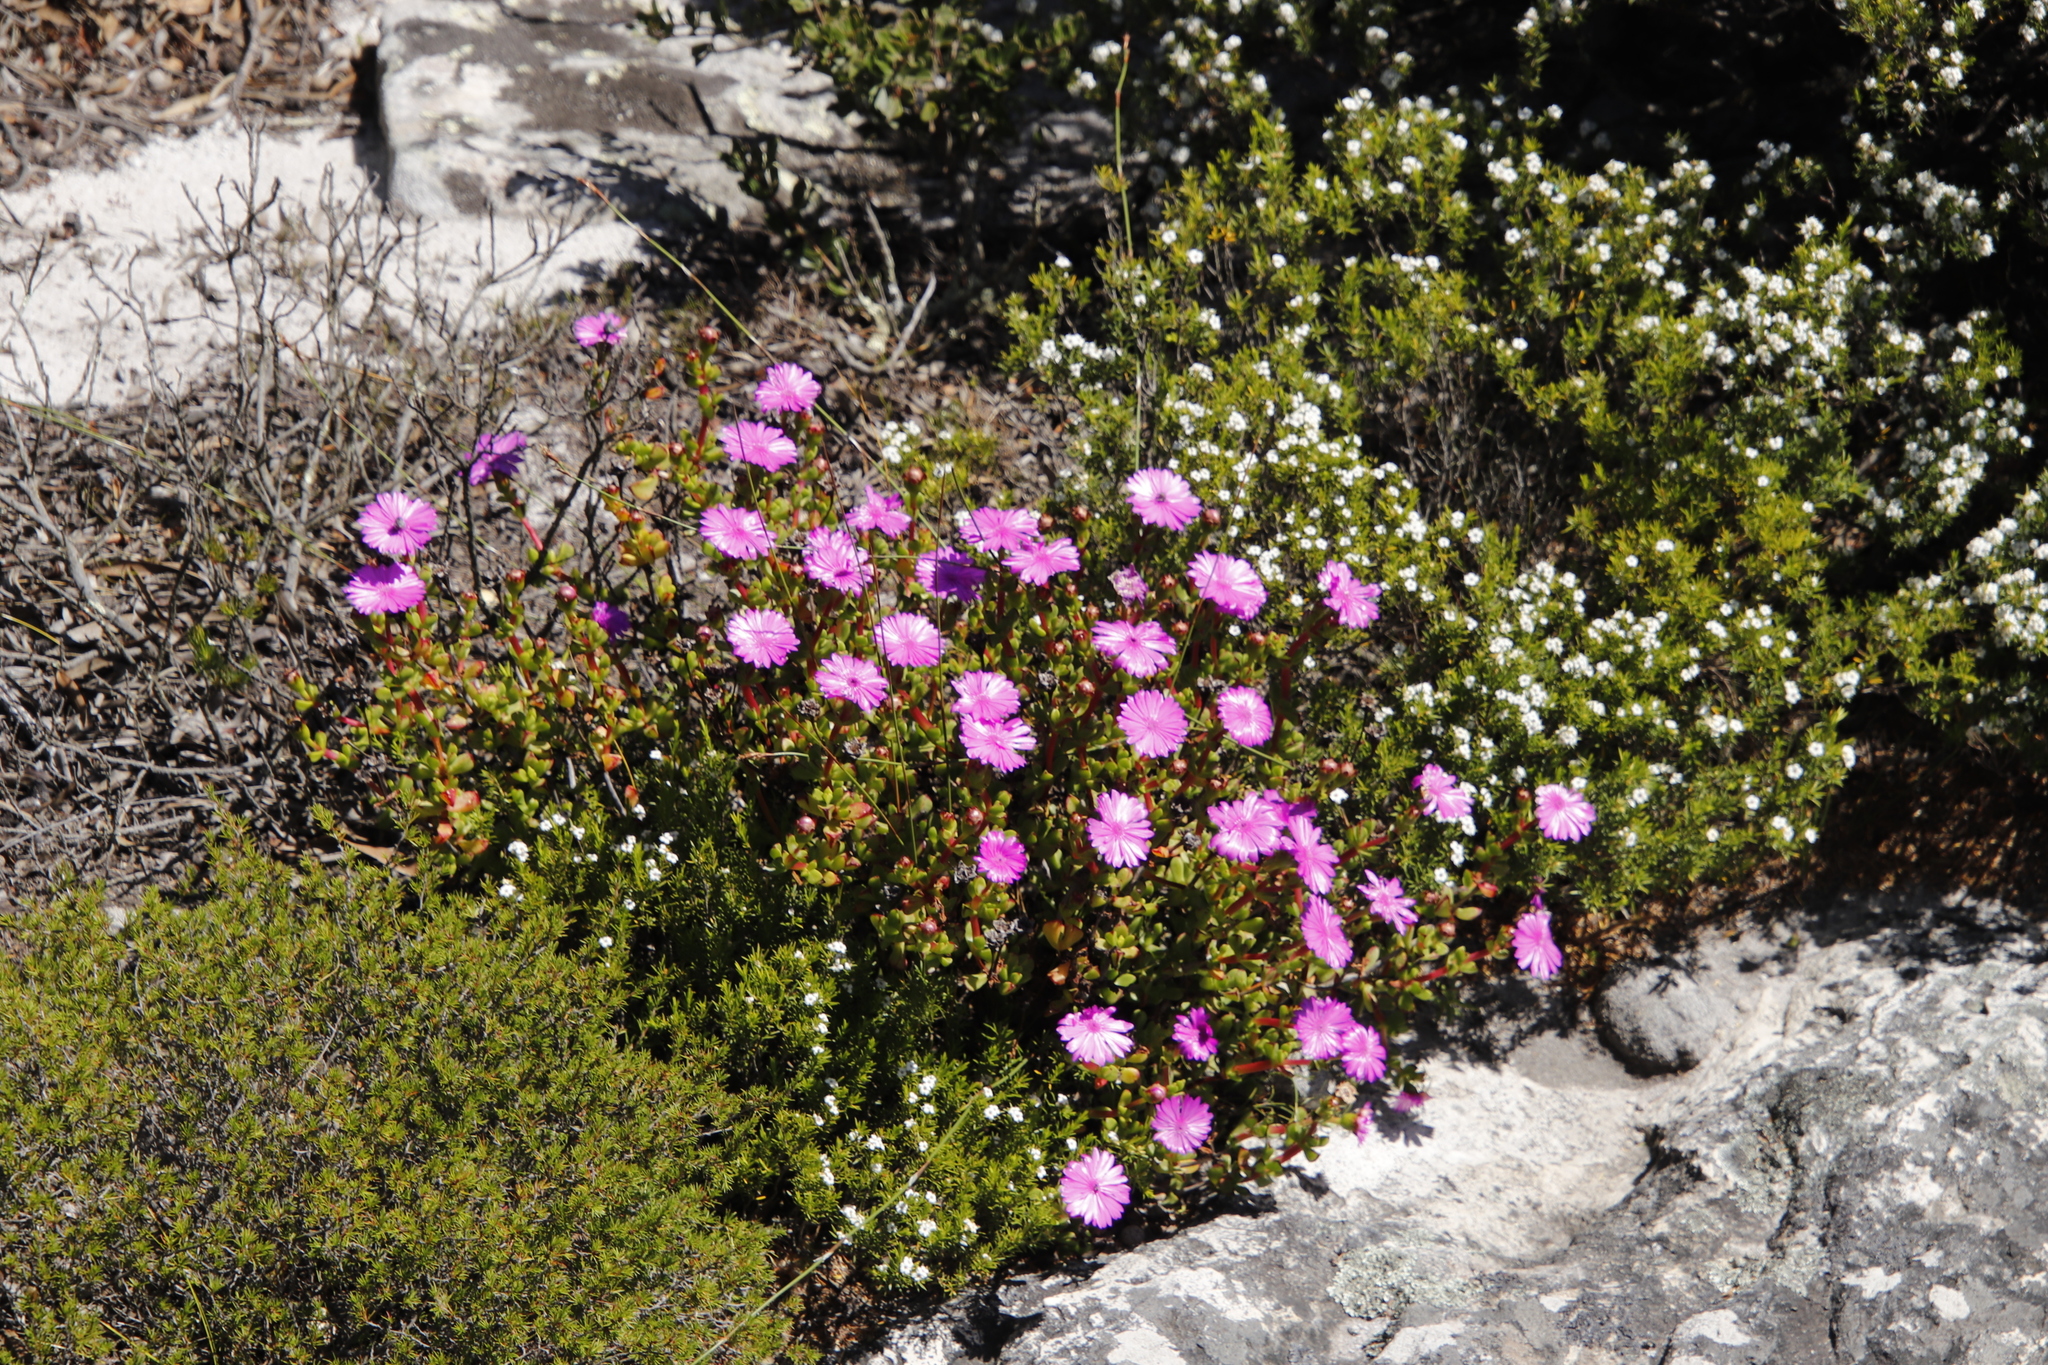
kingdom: Plantae
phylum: Tracheophyta
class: Magnoliopsida
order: Caryophyllales
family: Aizoaceae
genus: Erepsia
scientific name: Erepsia inclaudens
